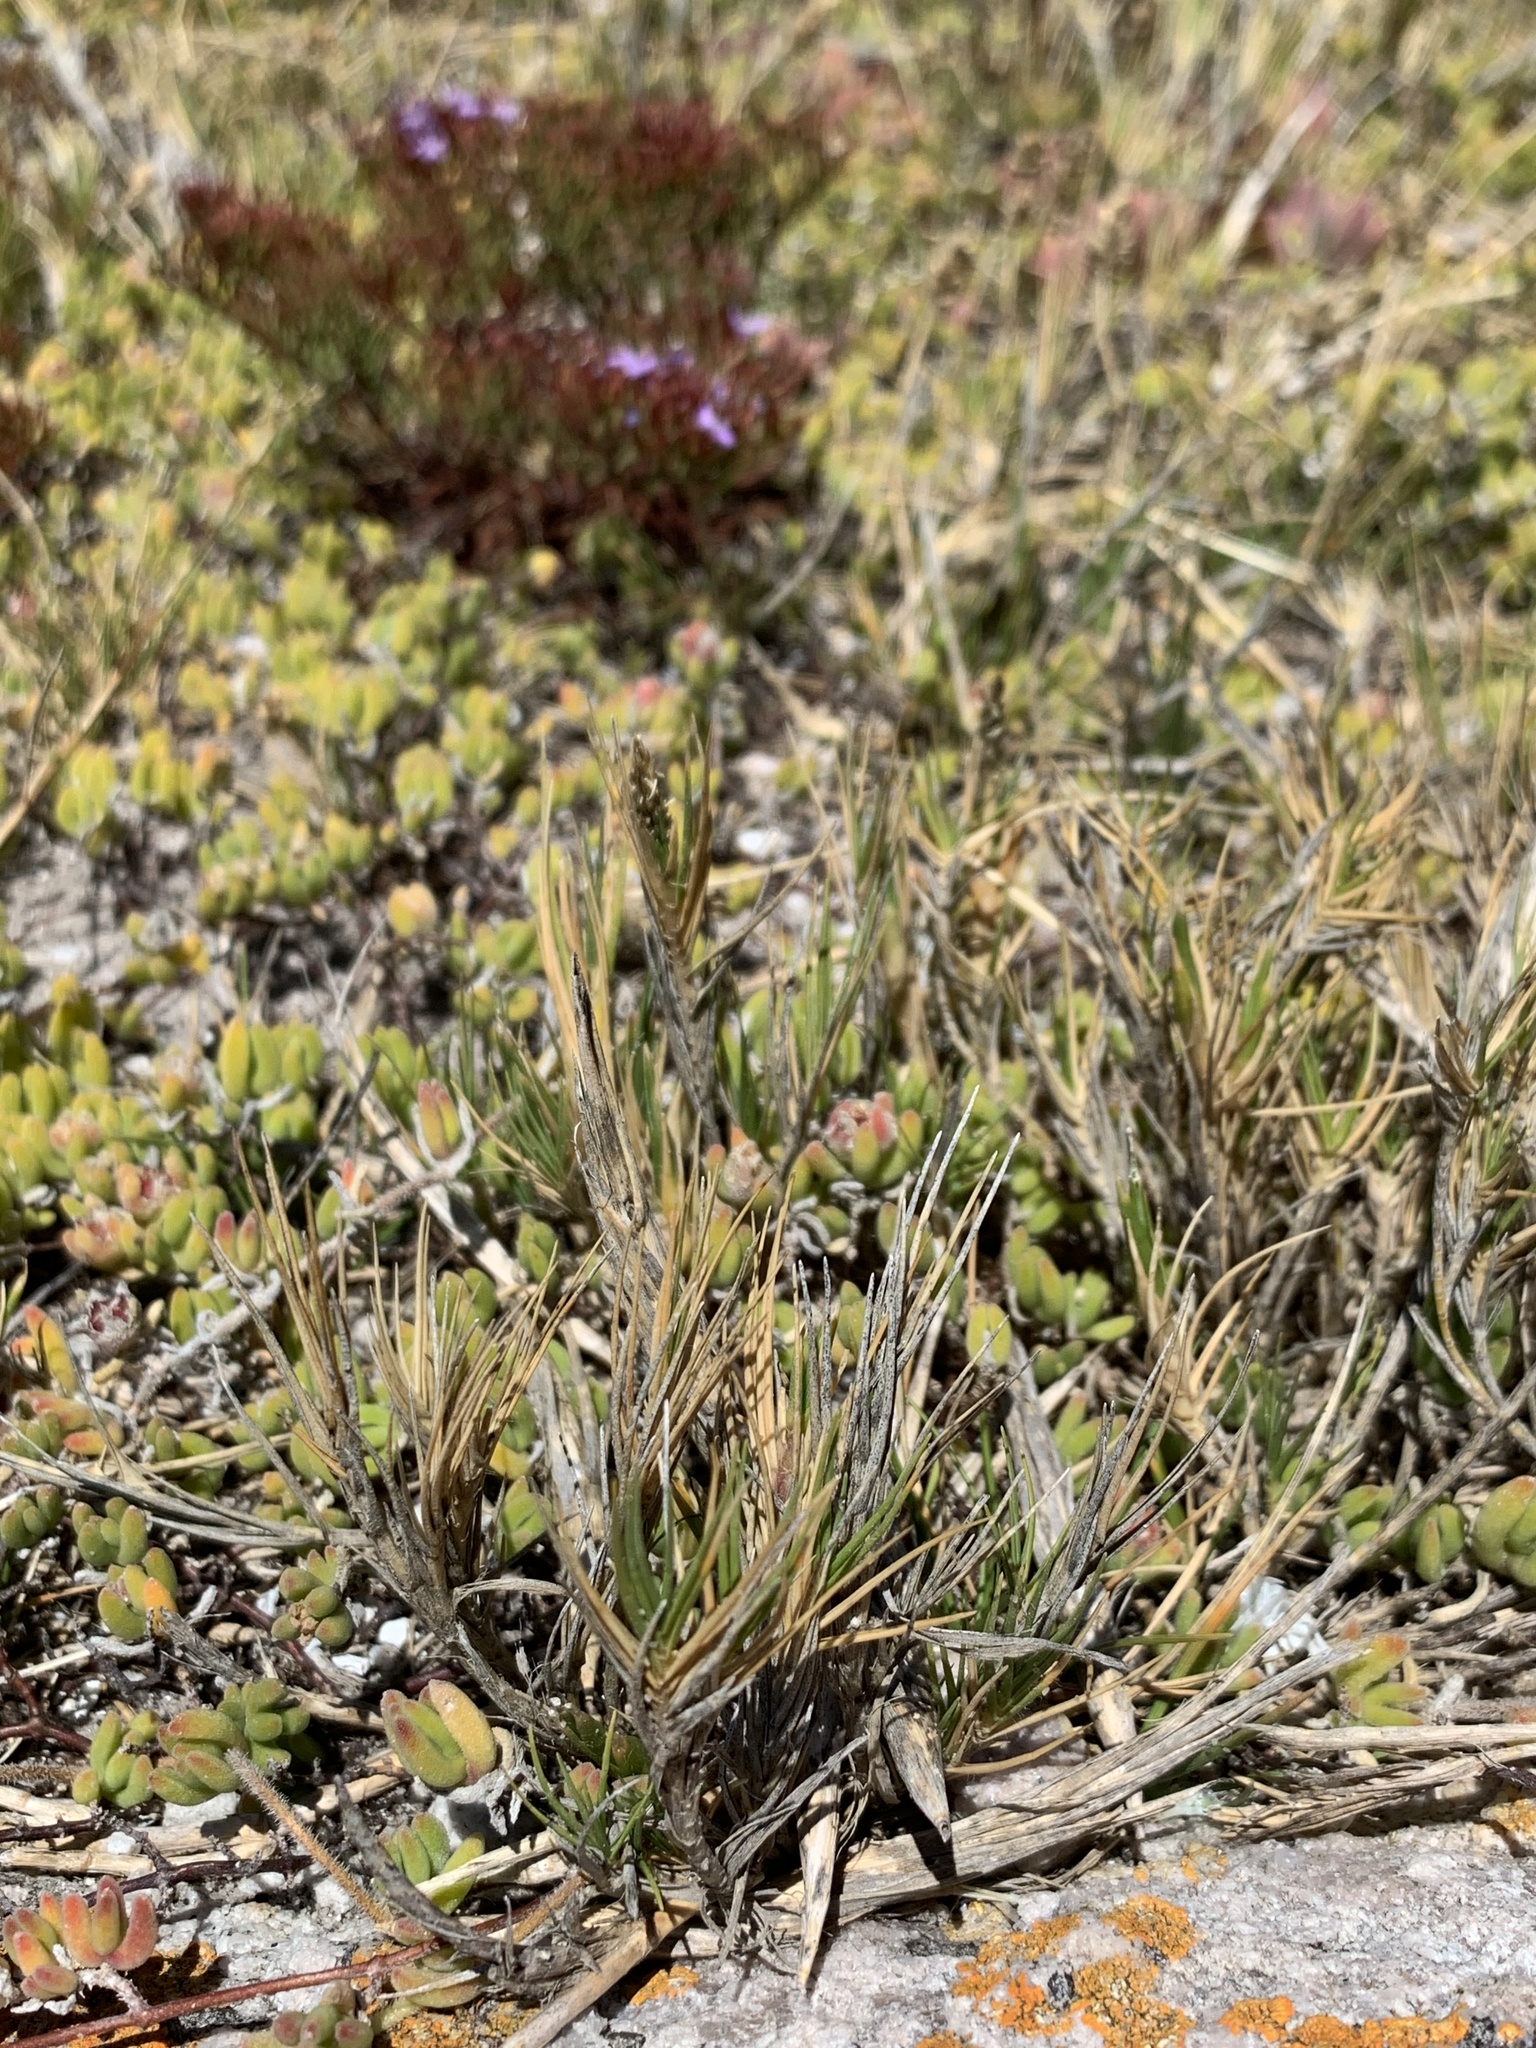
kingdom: Plantae
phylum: Tracheophyta
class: Liliopsida
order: Poales
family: Poaceae
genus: Sporobolus
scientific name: Sporobolus virginicus
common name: Beach dropseed
